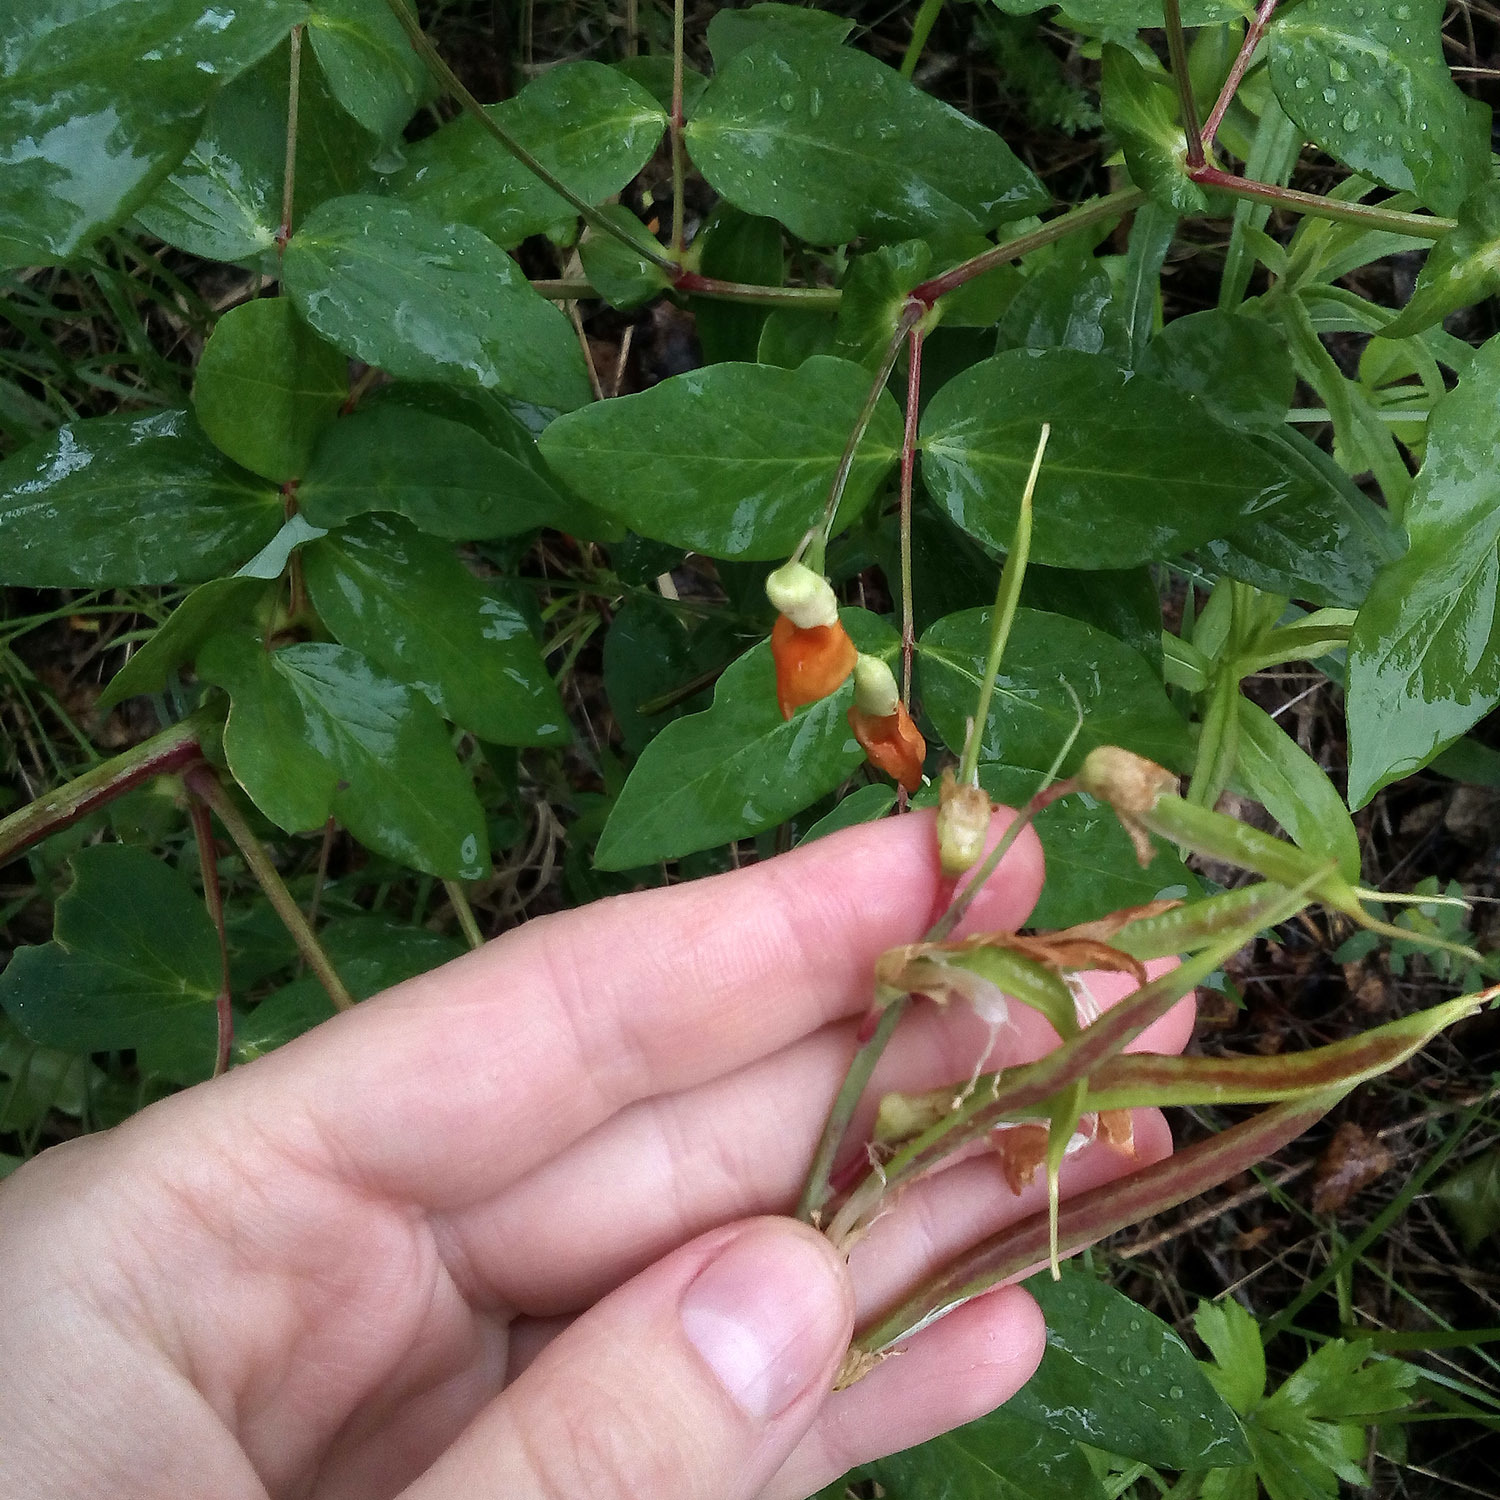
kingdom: Plantae
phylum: Tracheophyta
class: Magnoliopsida
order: Fabales
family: Fabaceae
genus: Lathyrus
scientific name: Lathyrus gmelinii
